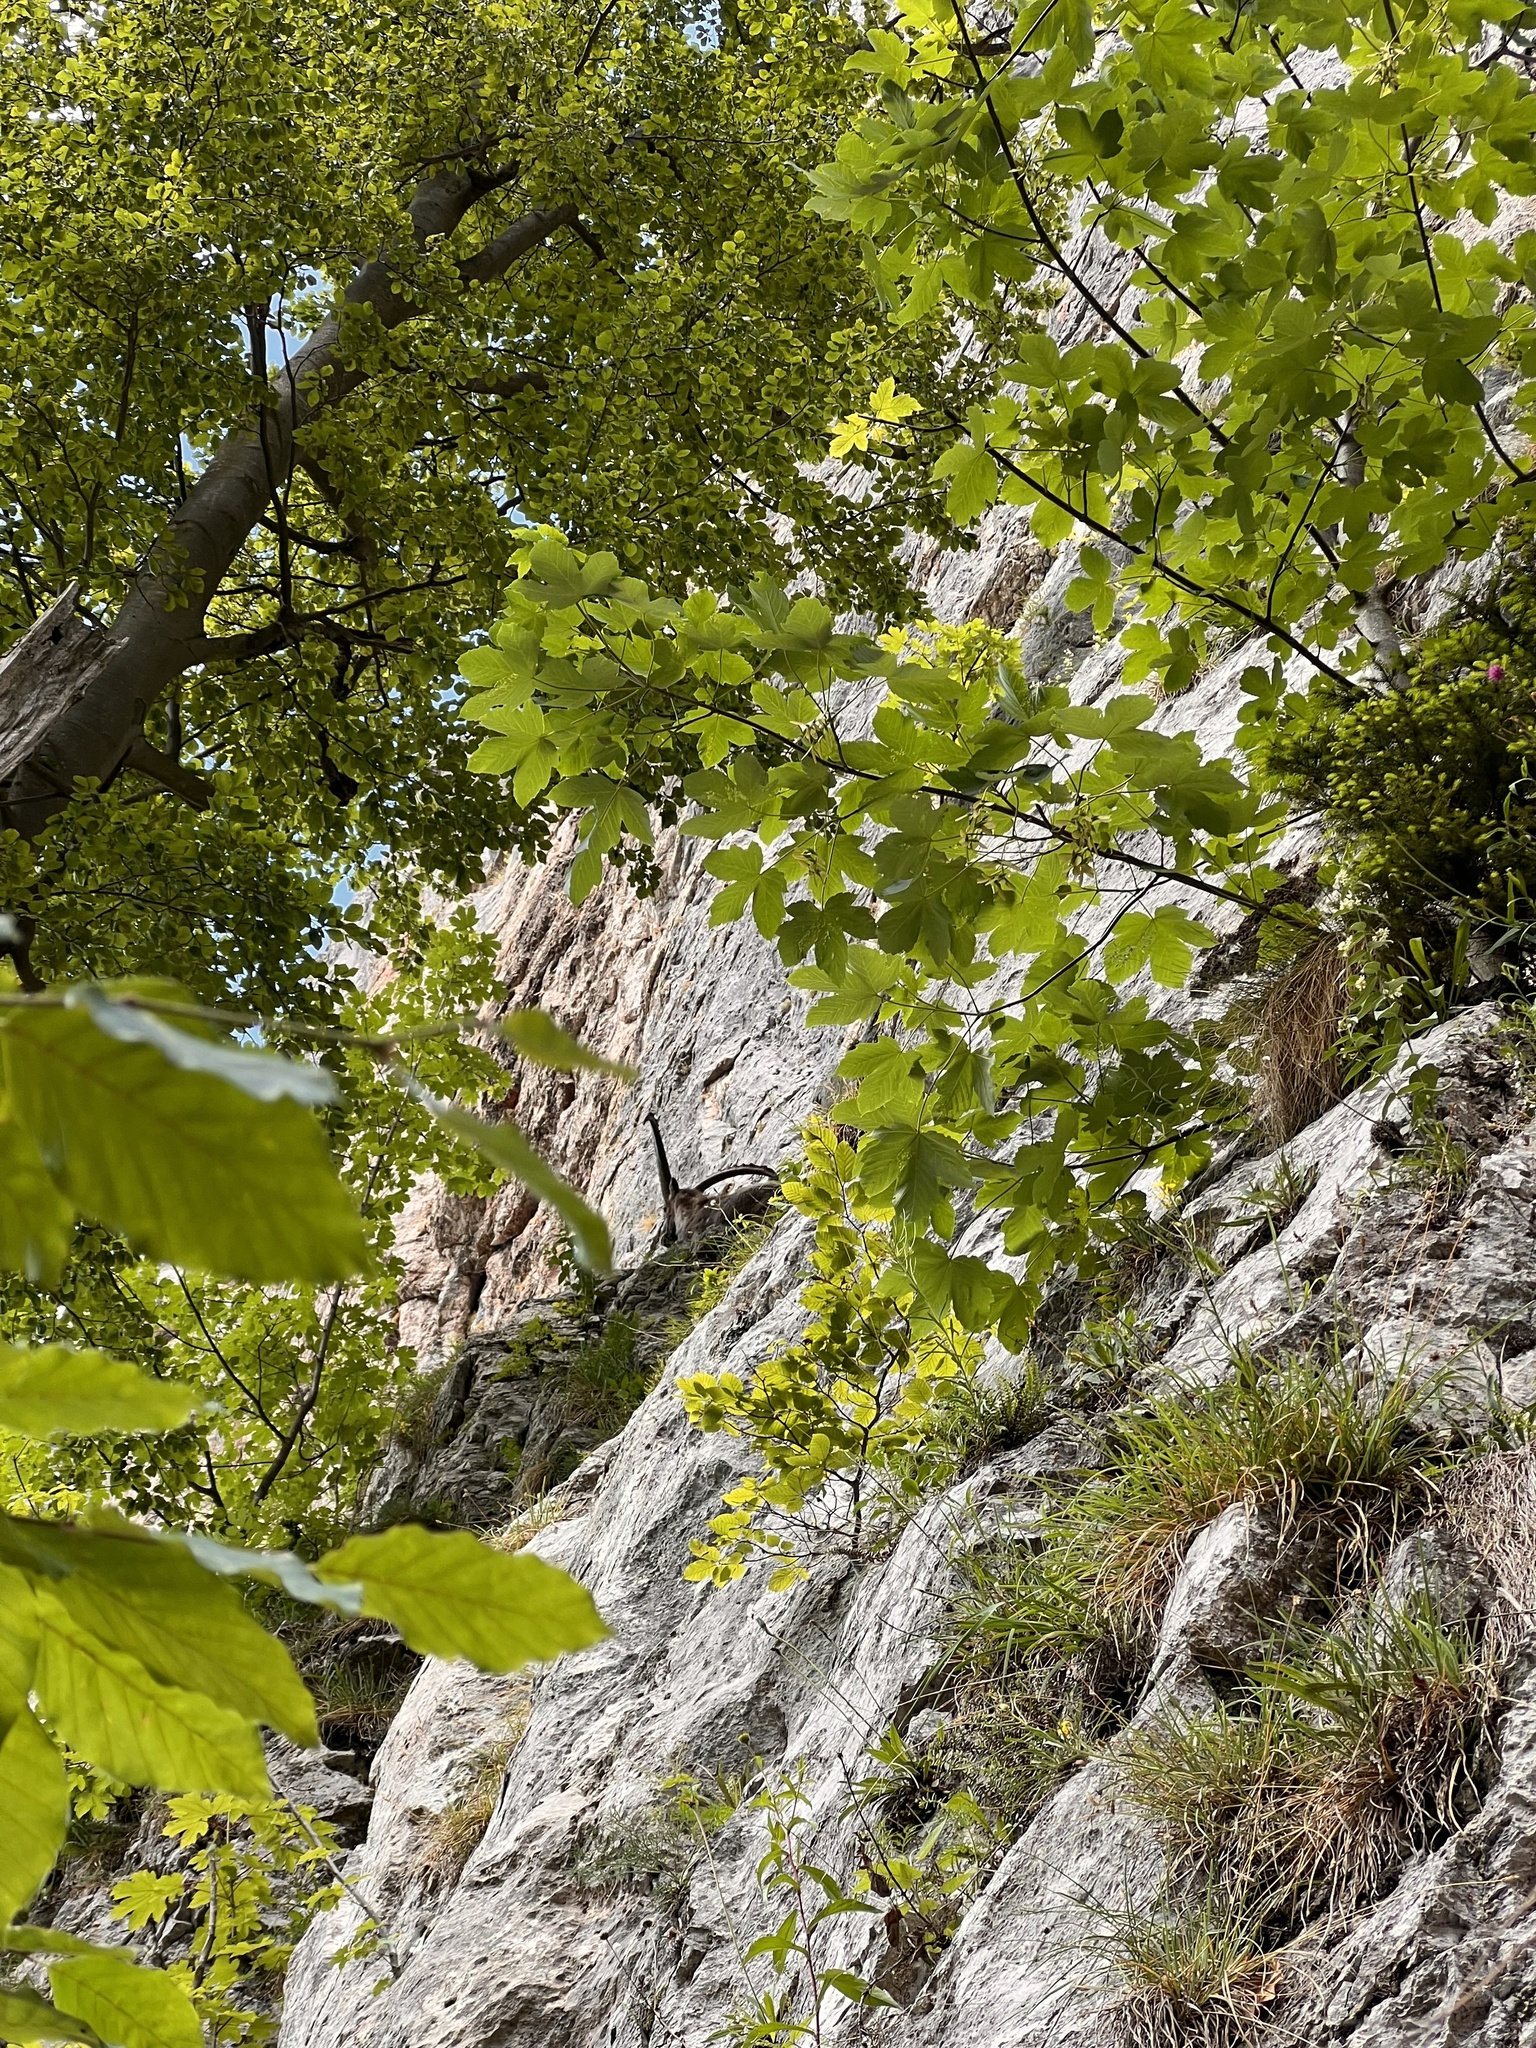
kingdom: Animalia
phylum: Chordata
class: Mammalia
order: Artiodactyla
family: Bovidae
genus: Capra
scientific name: Capra ibex
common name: Alpine ibex
